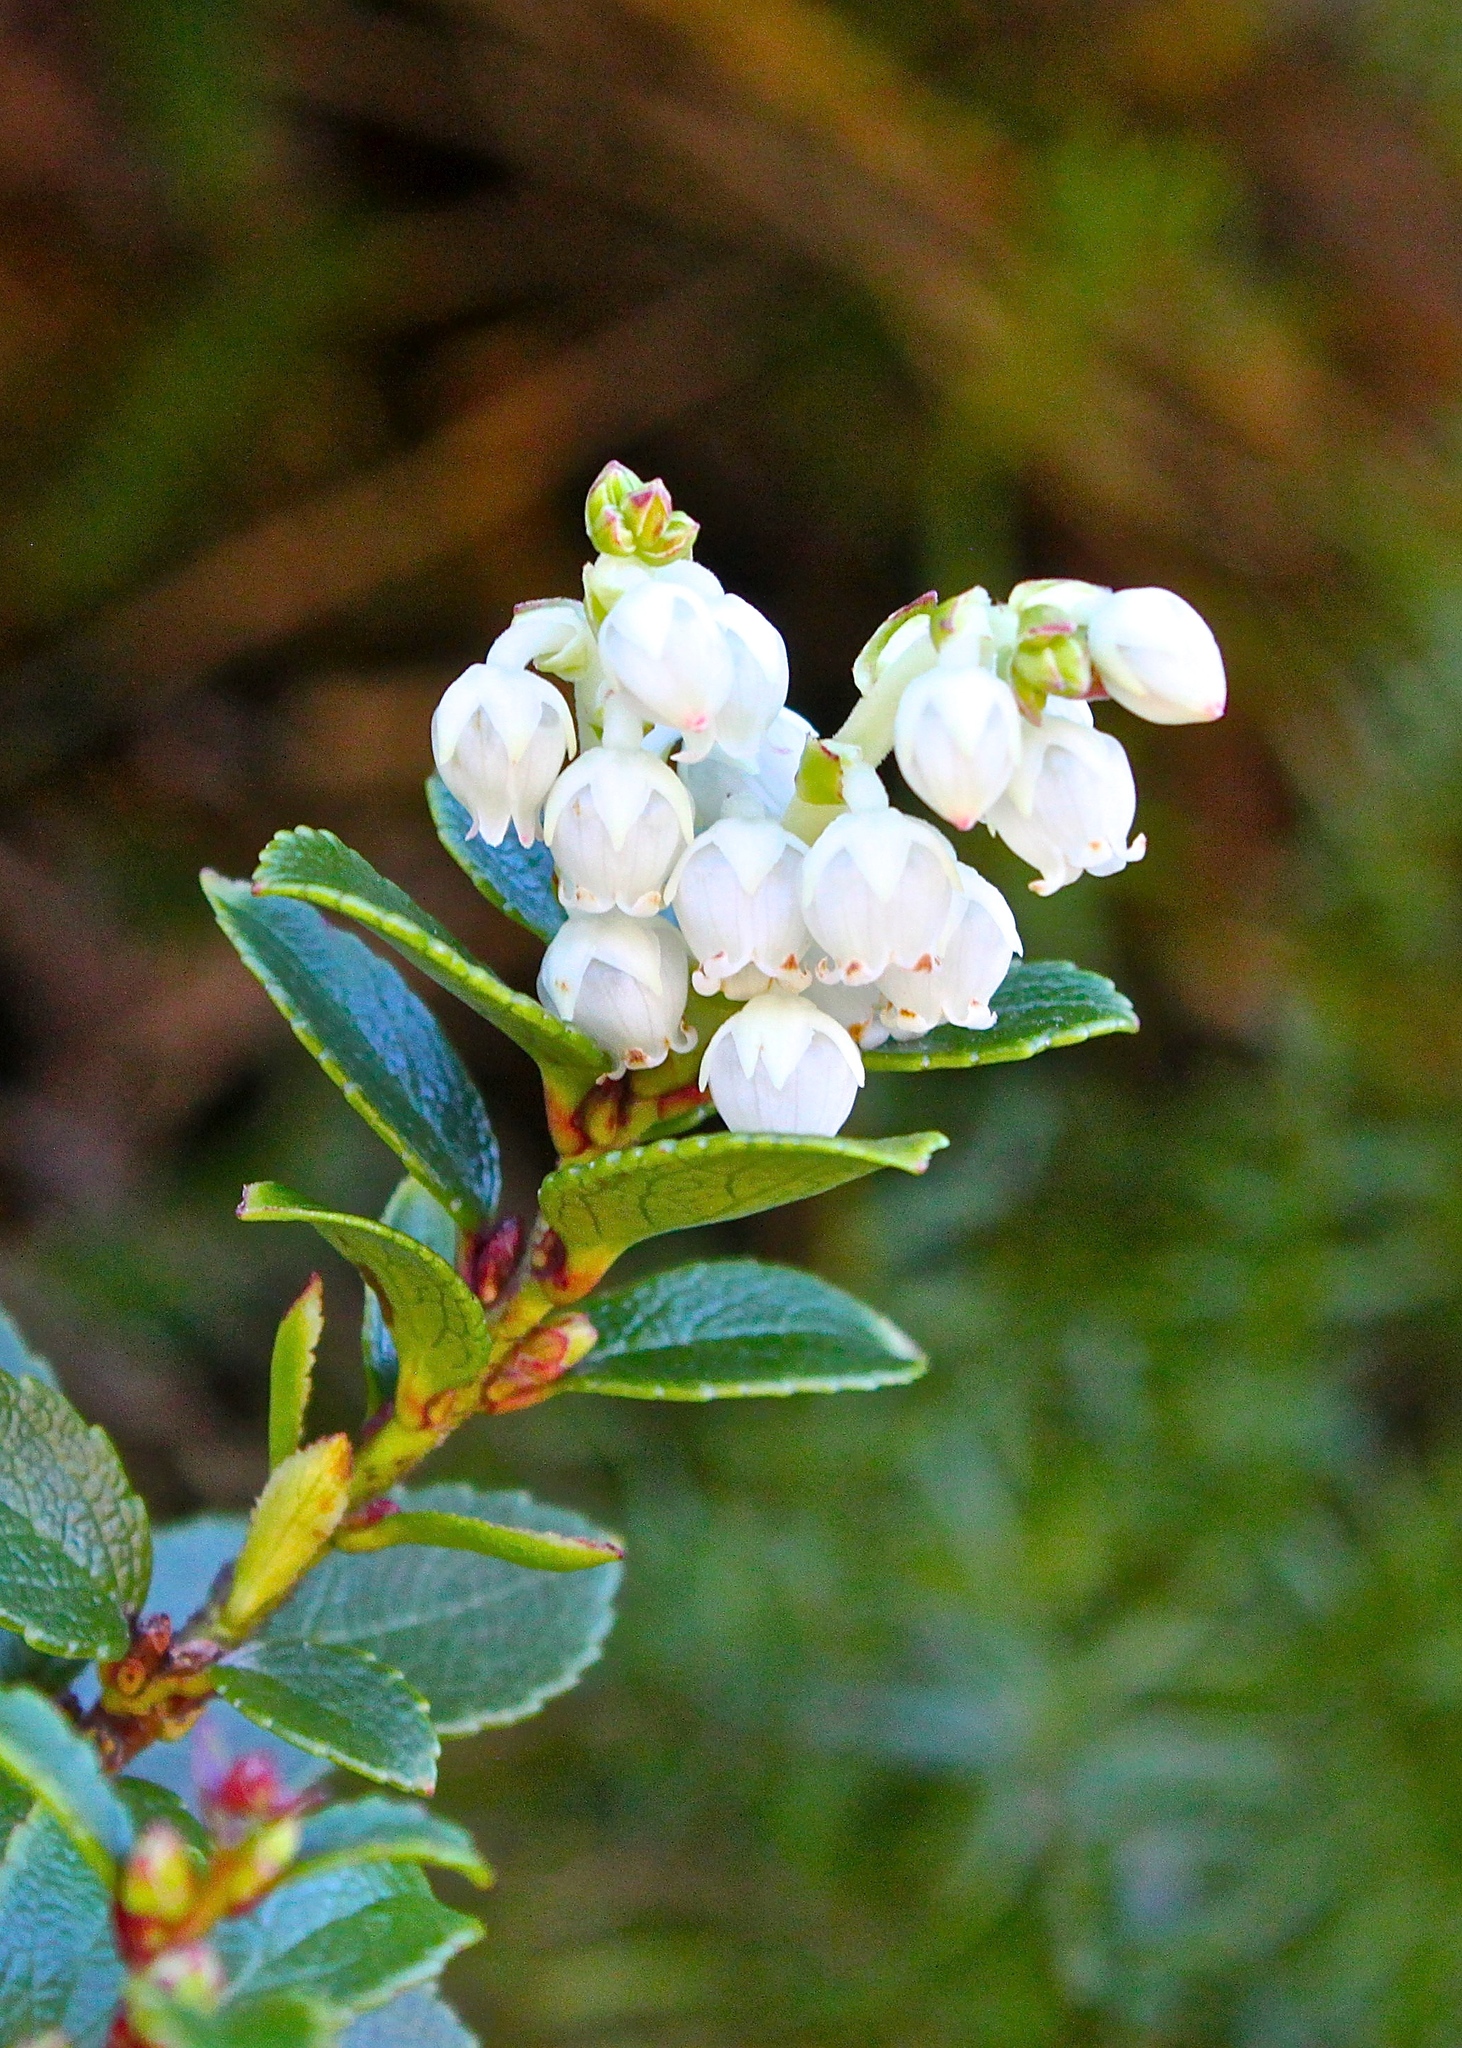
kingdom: Plantae
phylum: Tracheophyta
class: Magnoliopsida
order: Ericales
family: Ericaceae
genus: Gaultheria
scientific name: Gaultheria crassa
